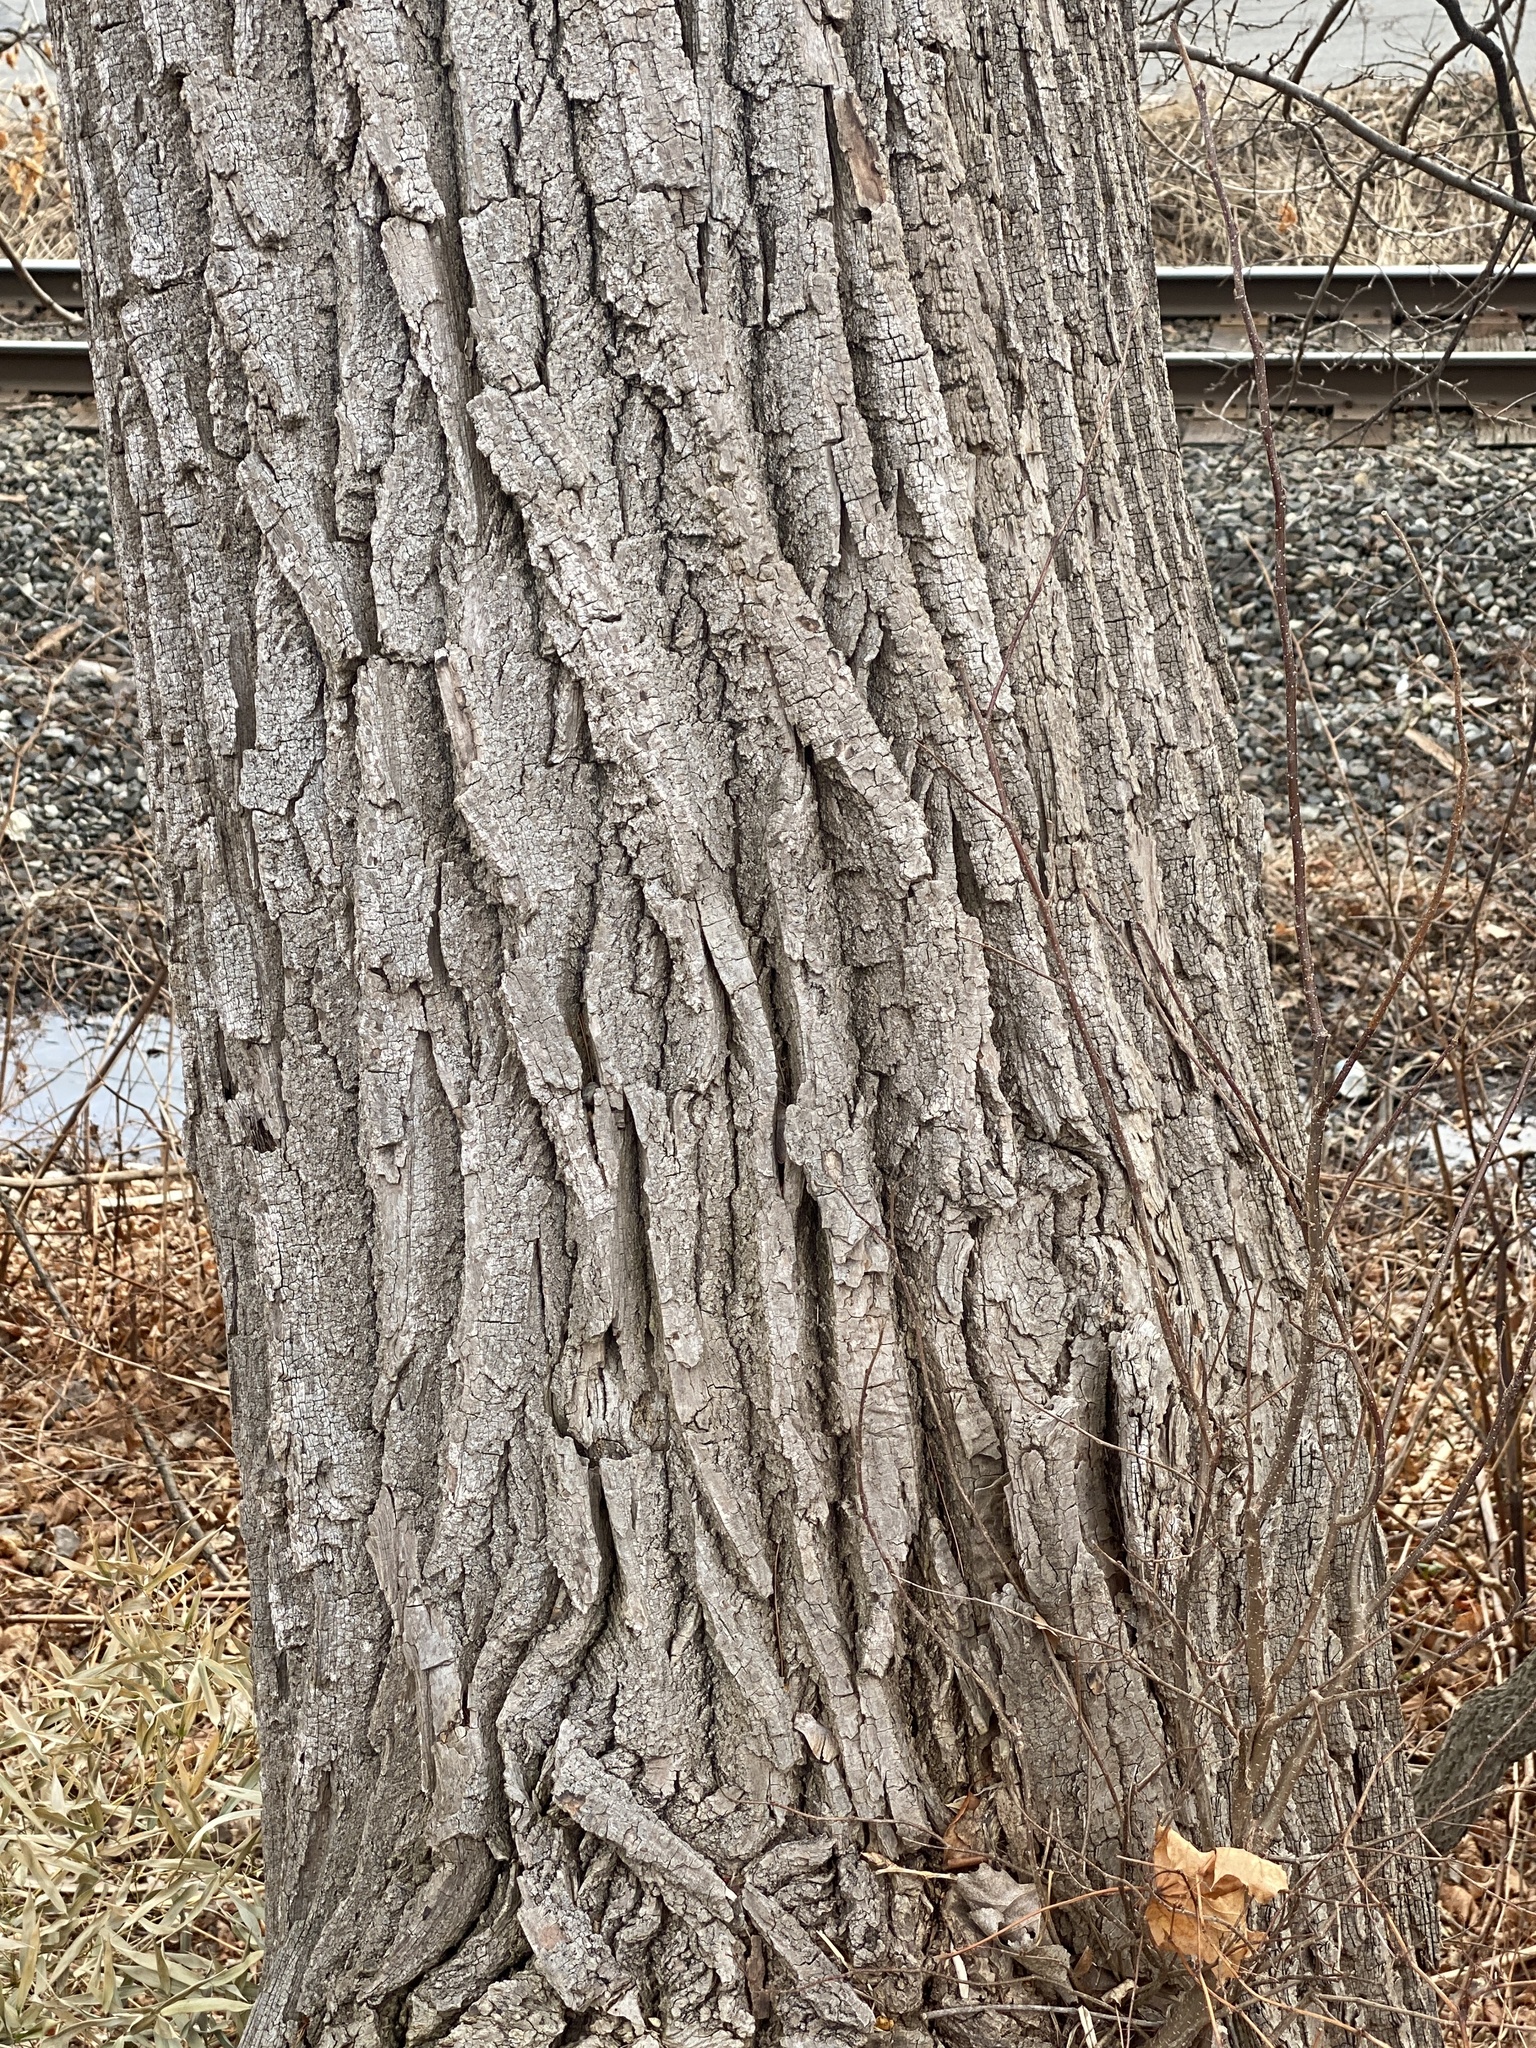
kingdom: Plantae
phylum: Tracheophyta
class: Magnoliopsida
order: Malpighiales
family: Salicaceae
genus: Populus
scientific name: Populus deltoides
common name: Eastern cottonwood
